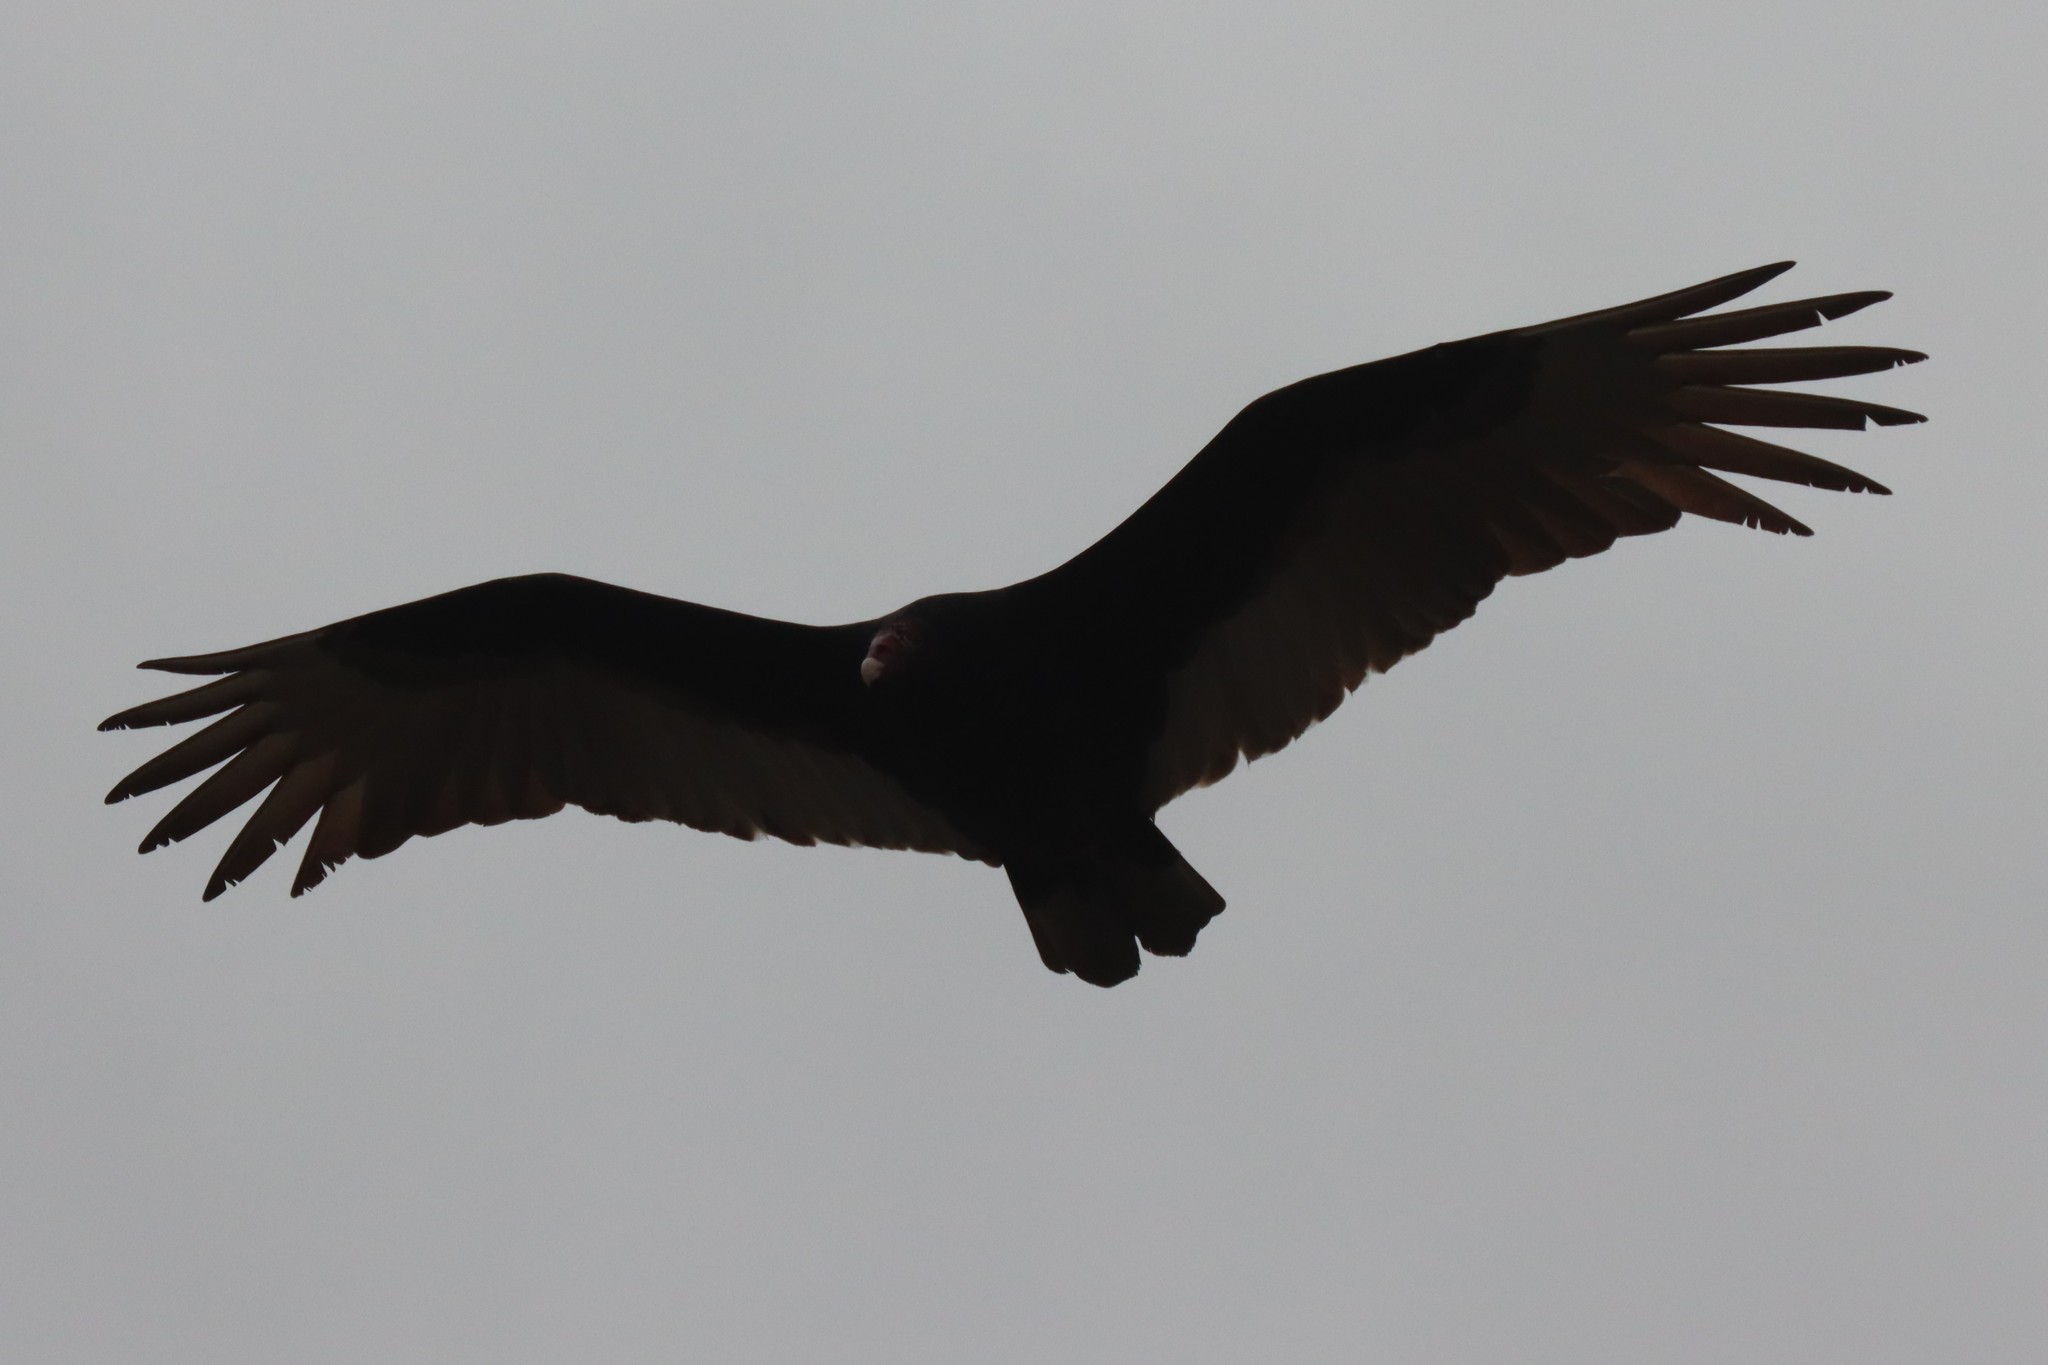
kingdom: Animalia
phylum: Chordata
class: Aves
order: Accipitriformes
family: Cathartidae
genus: Cathartes
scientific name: Cathartes aura
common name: Turkey vulture
